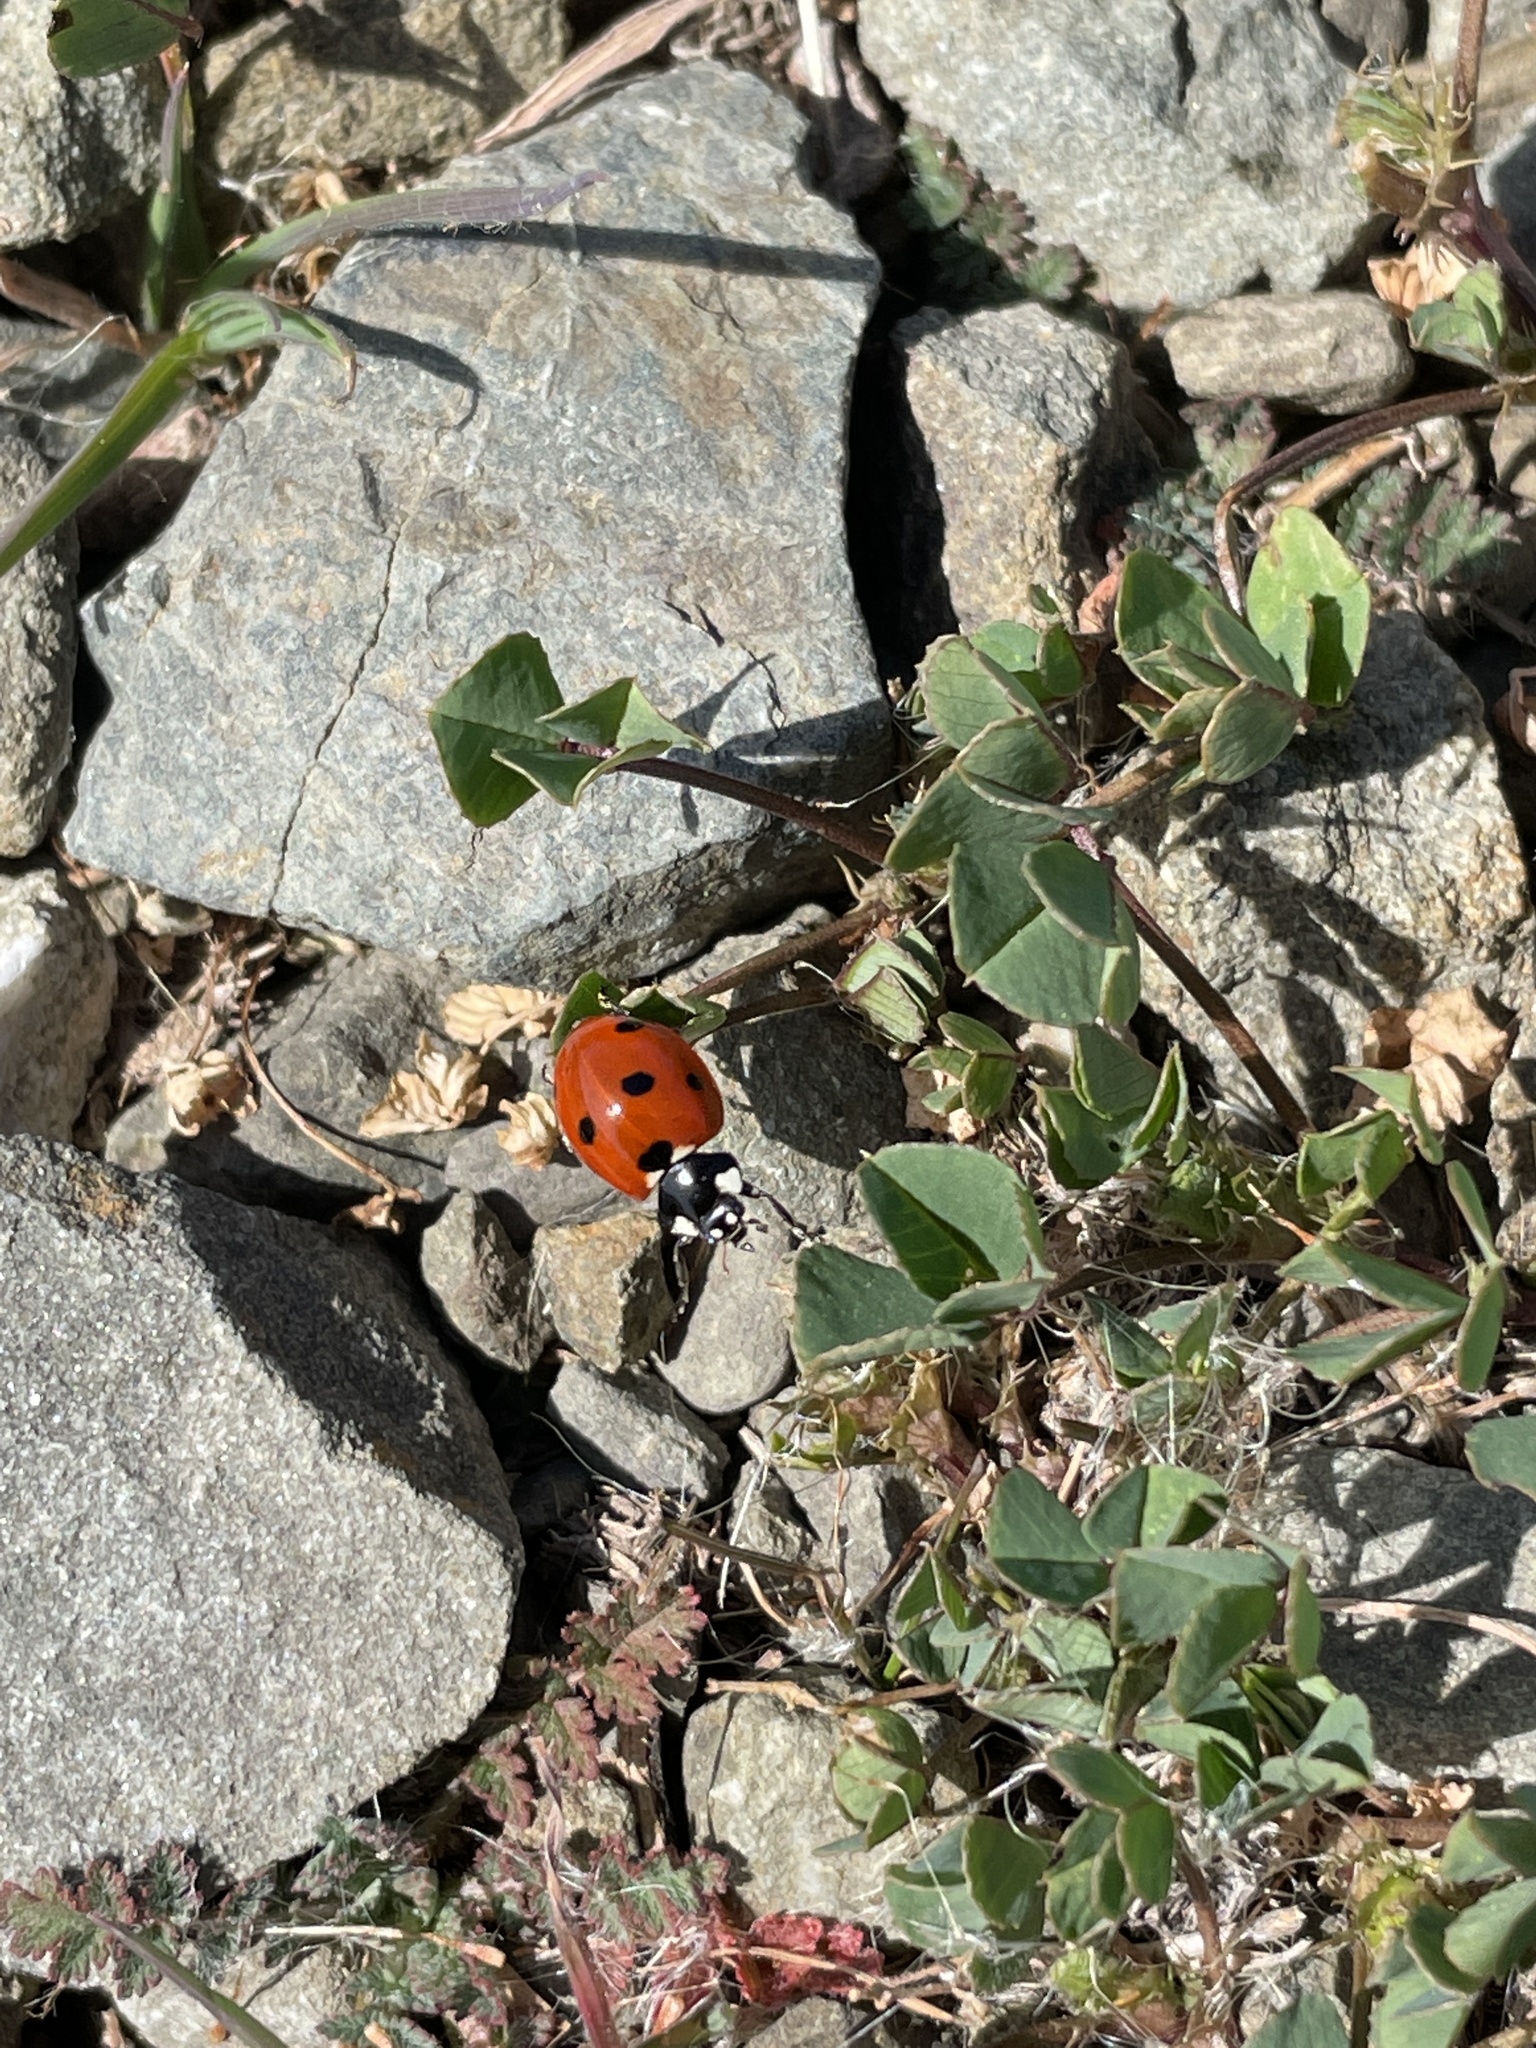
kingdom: Animalia
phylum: Arthropoda
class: Insecta
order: Coleoptera
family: Coccinellidae
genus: Coccinella
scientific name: Coccinella septempunctata
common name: Sevenspotted lady beetle
